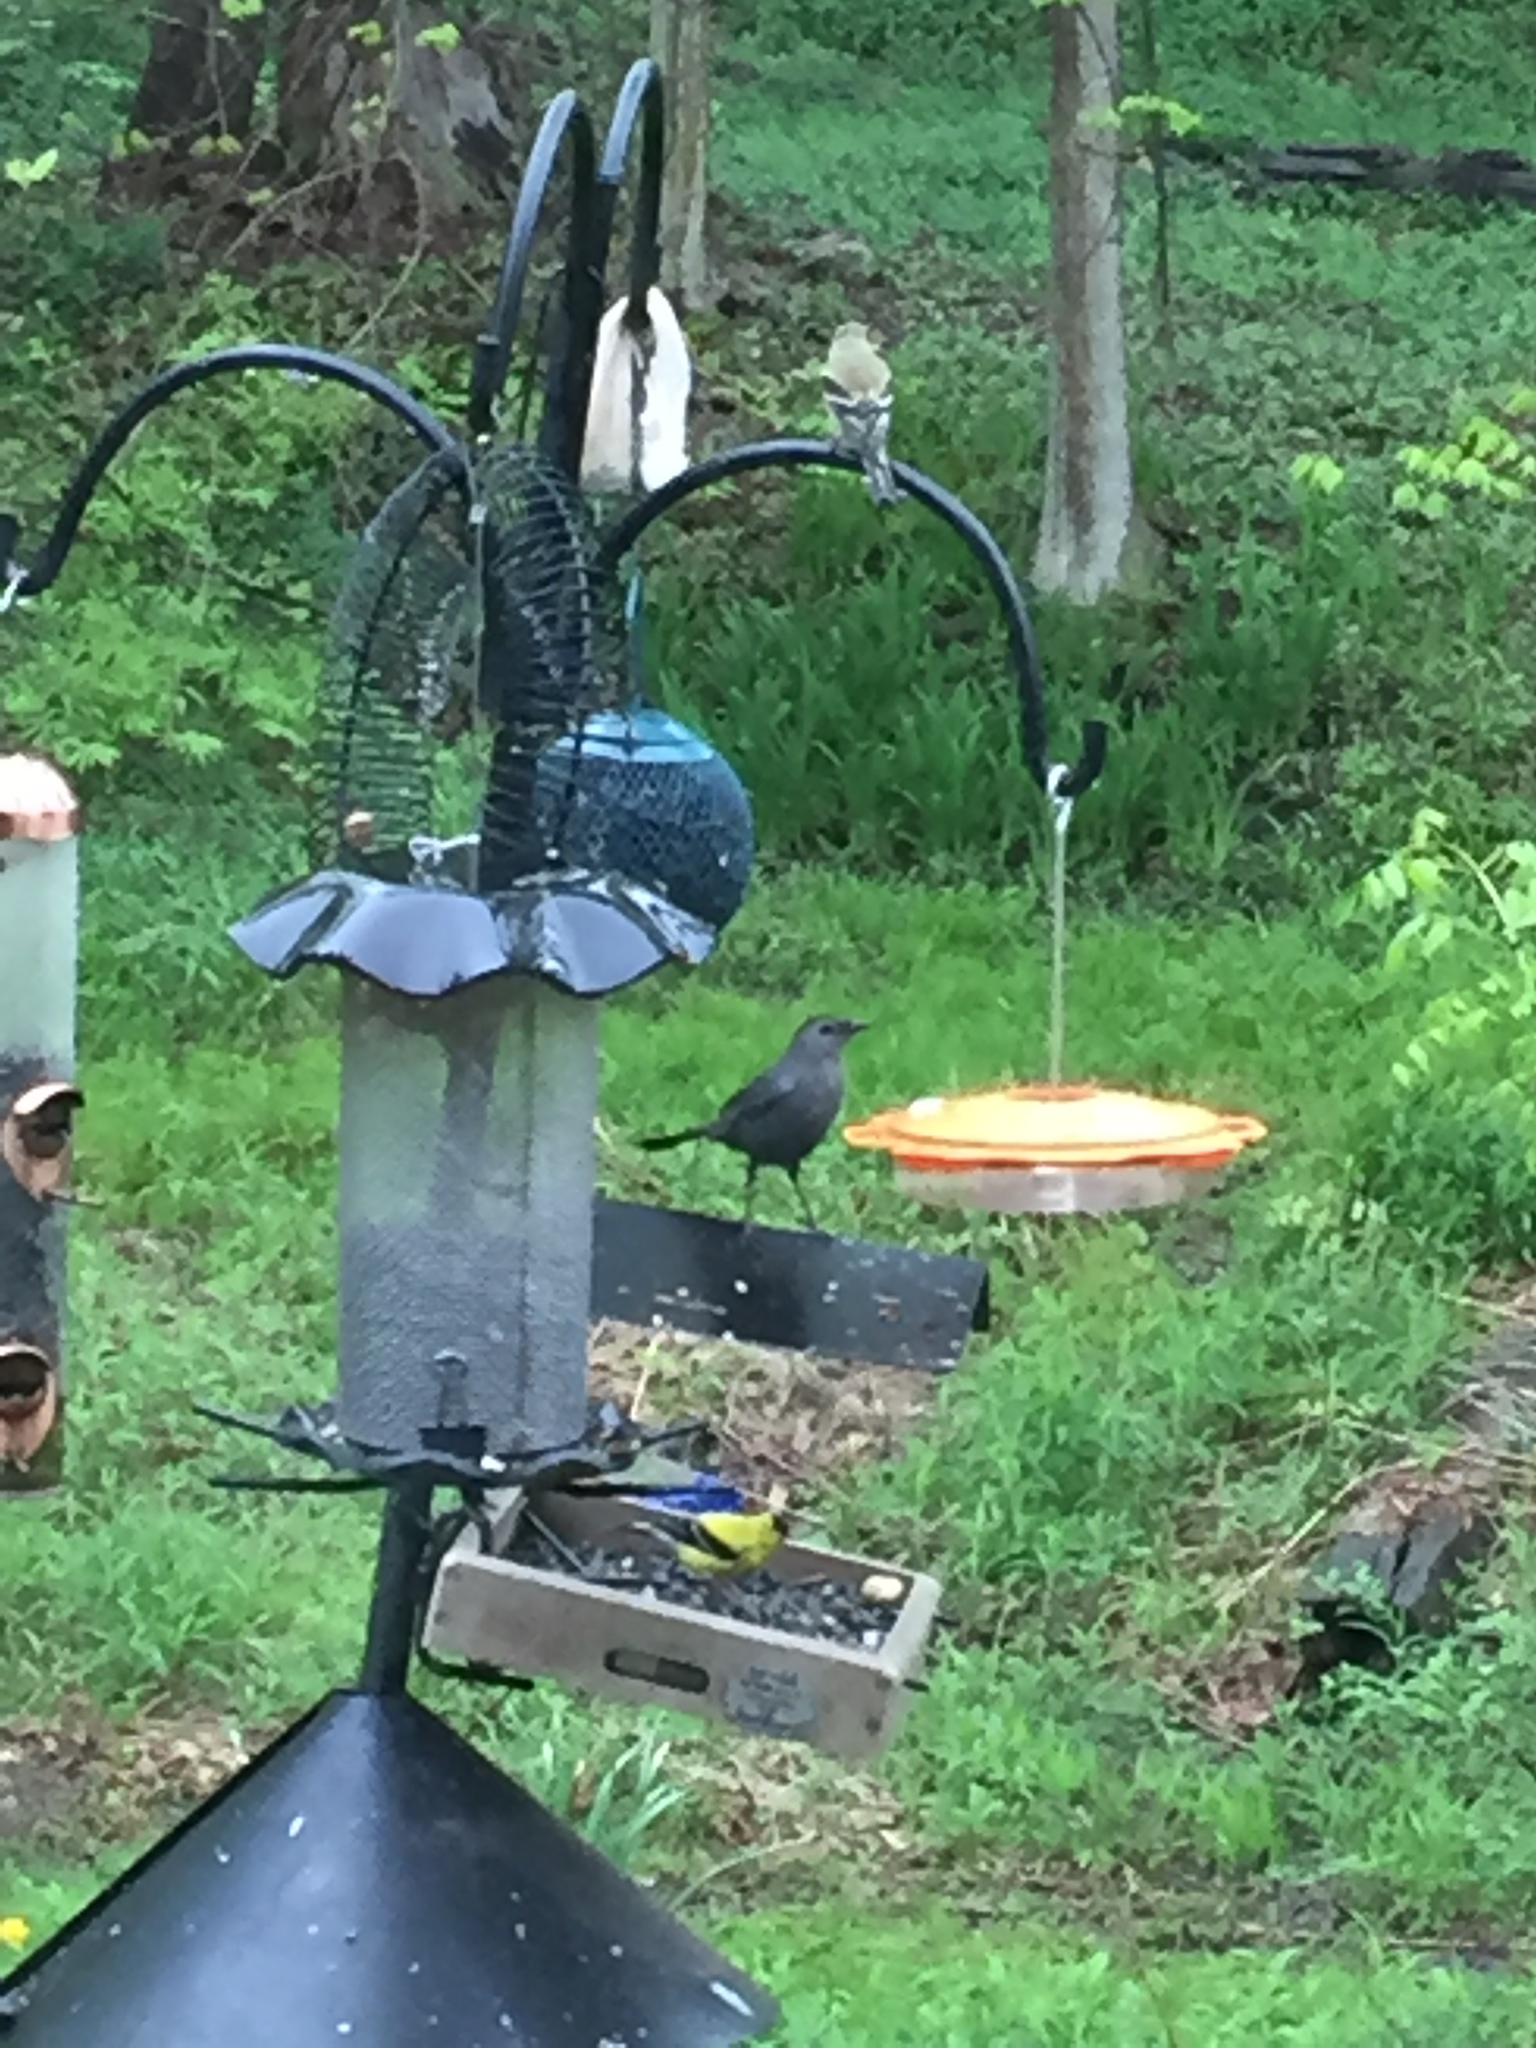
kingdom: Animalia
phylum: Chordata
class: Aves
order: Passeriformes
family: Mimidae
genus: Dumetella
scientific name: Dumetella carolinensis
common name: Gray catbird
